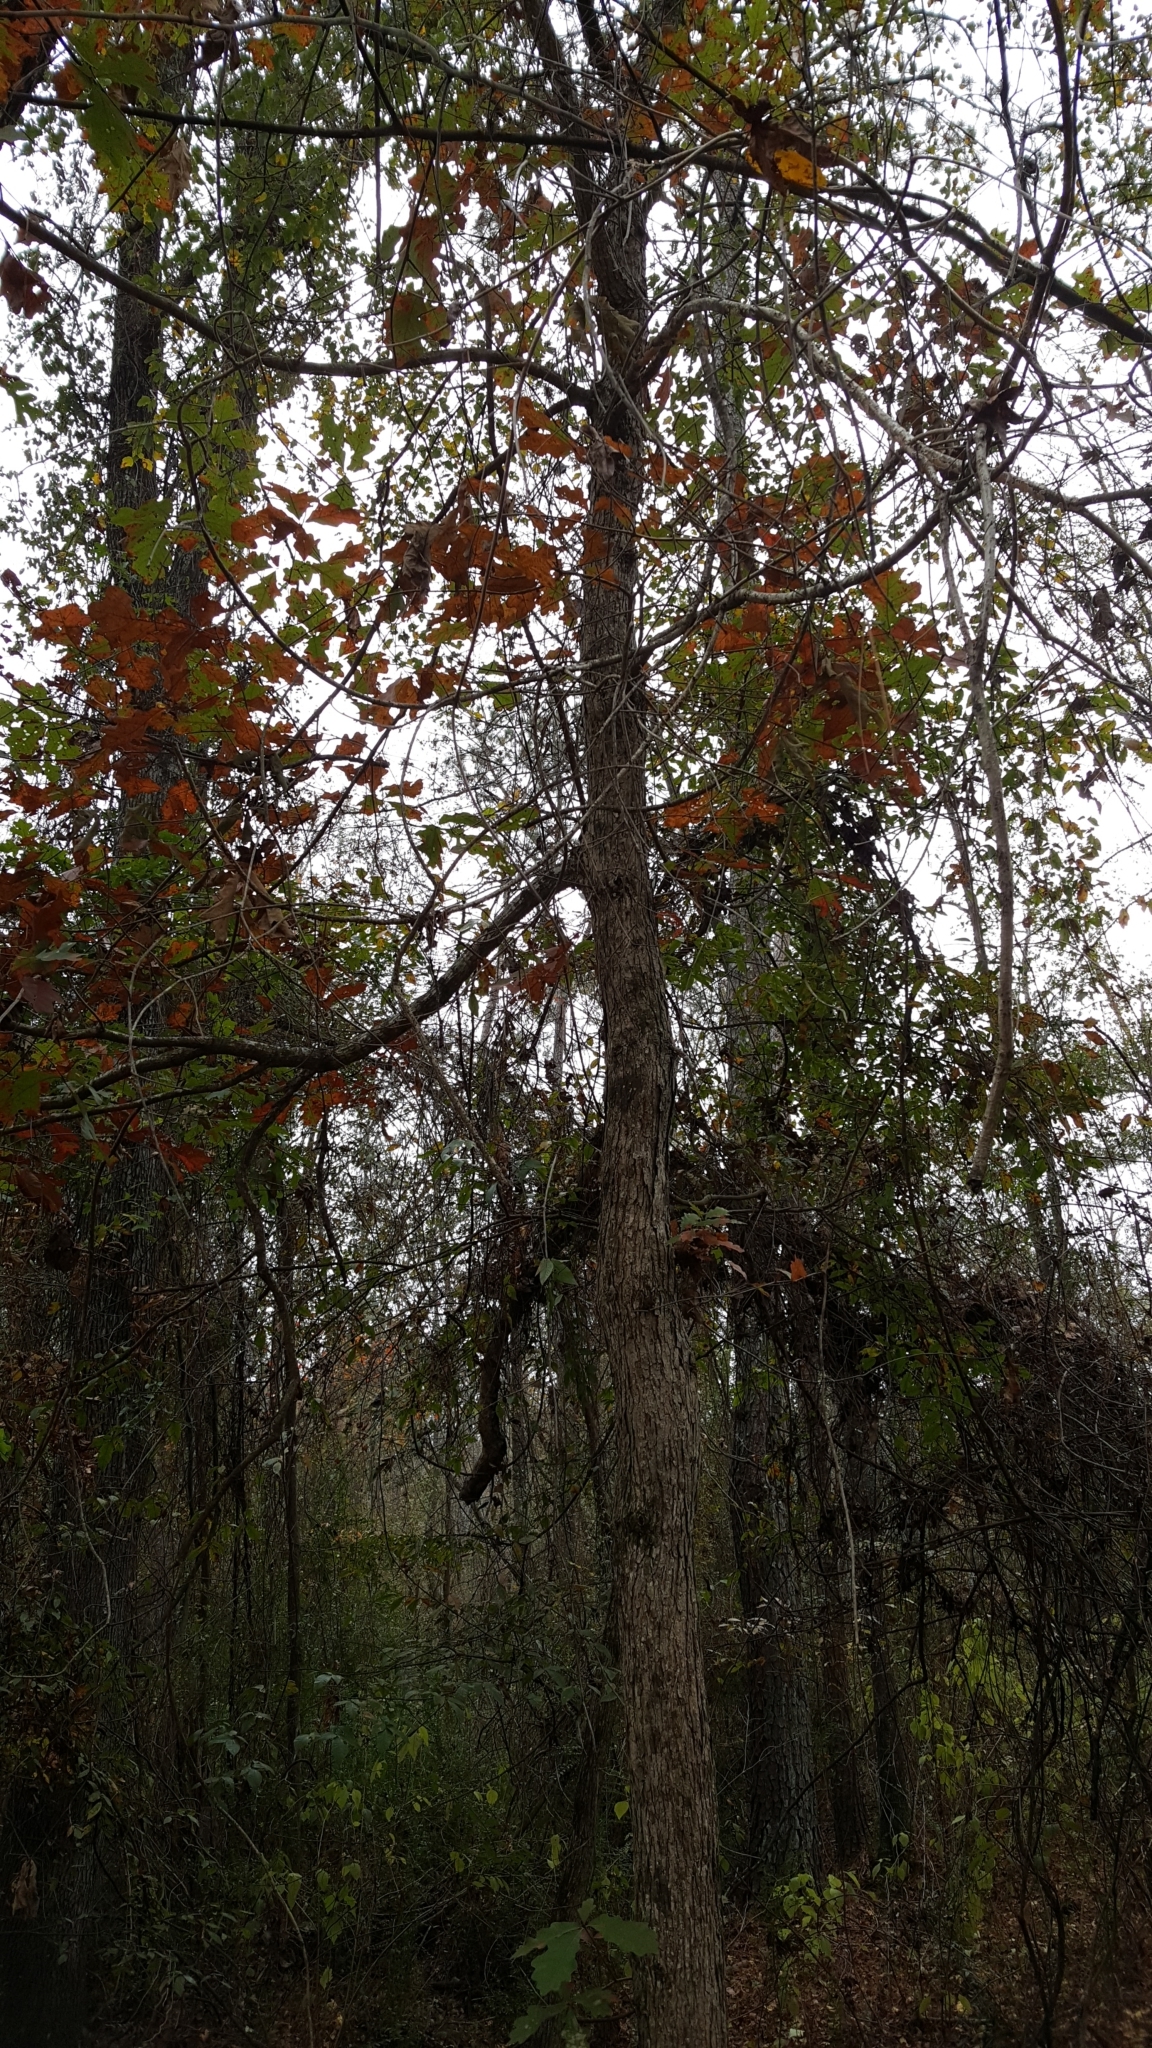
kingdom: Plantae
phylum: Tracheophyta
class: Magnoliopsida
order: Fagales
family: Fagaceae
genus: Quercus
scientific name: Quercus alba
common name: White oak
